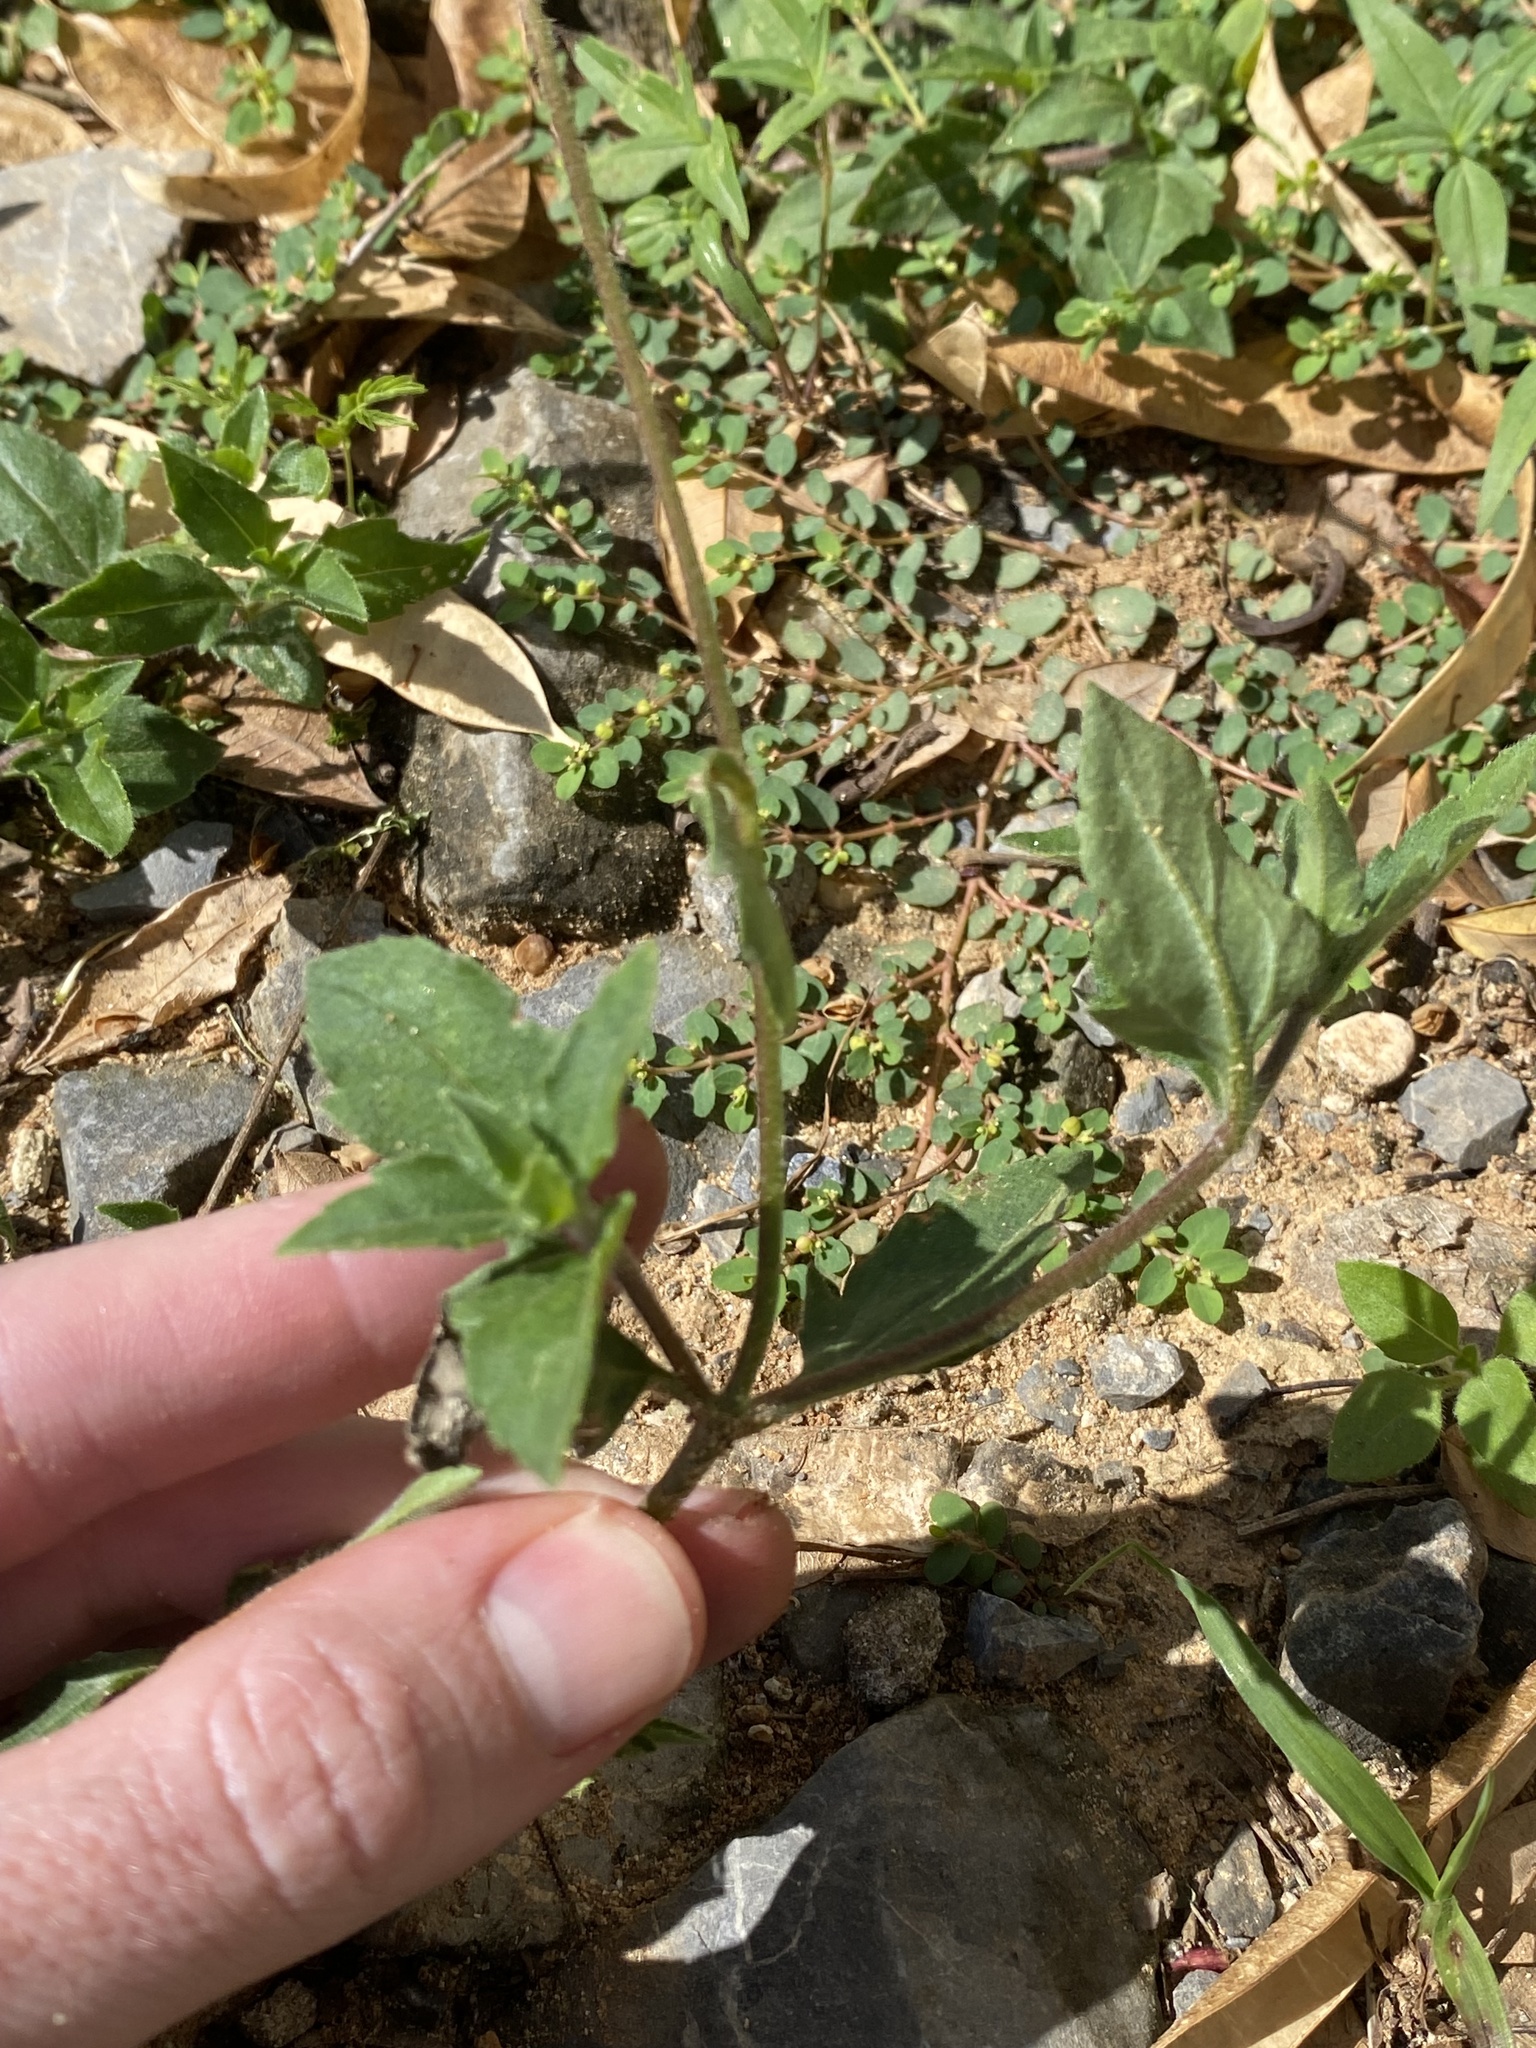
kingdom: Plantae
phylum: Tracheophyta
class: Magnoliopsida
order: Asterales
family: Asteraceae
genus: Tridax
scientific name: Tridax procumbens
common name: Coatbuttons
